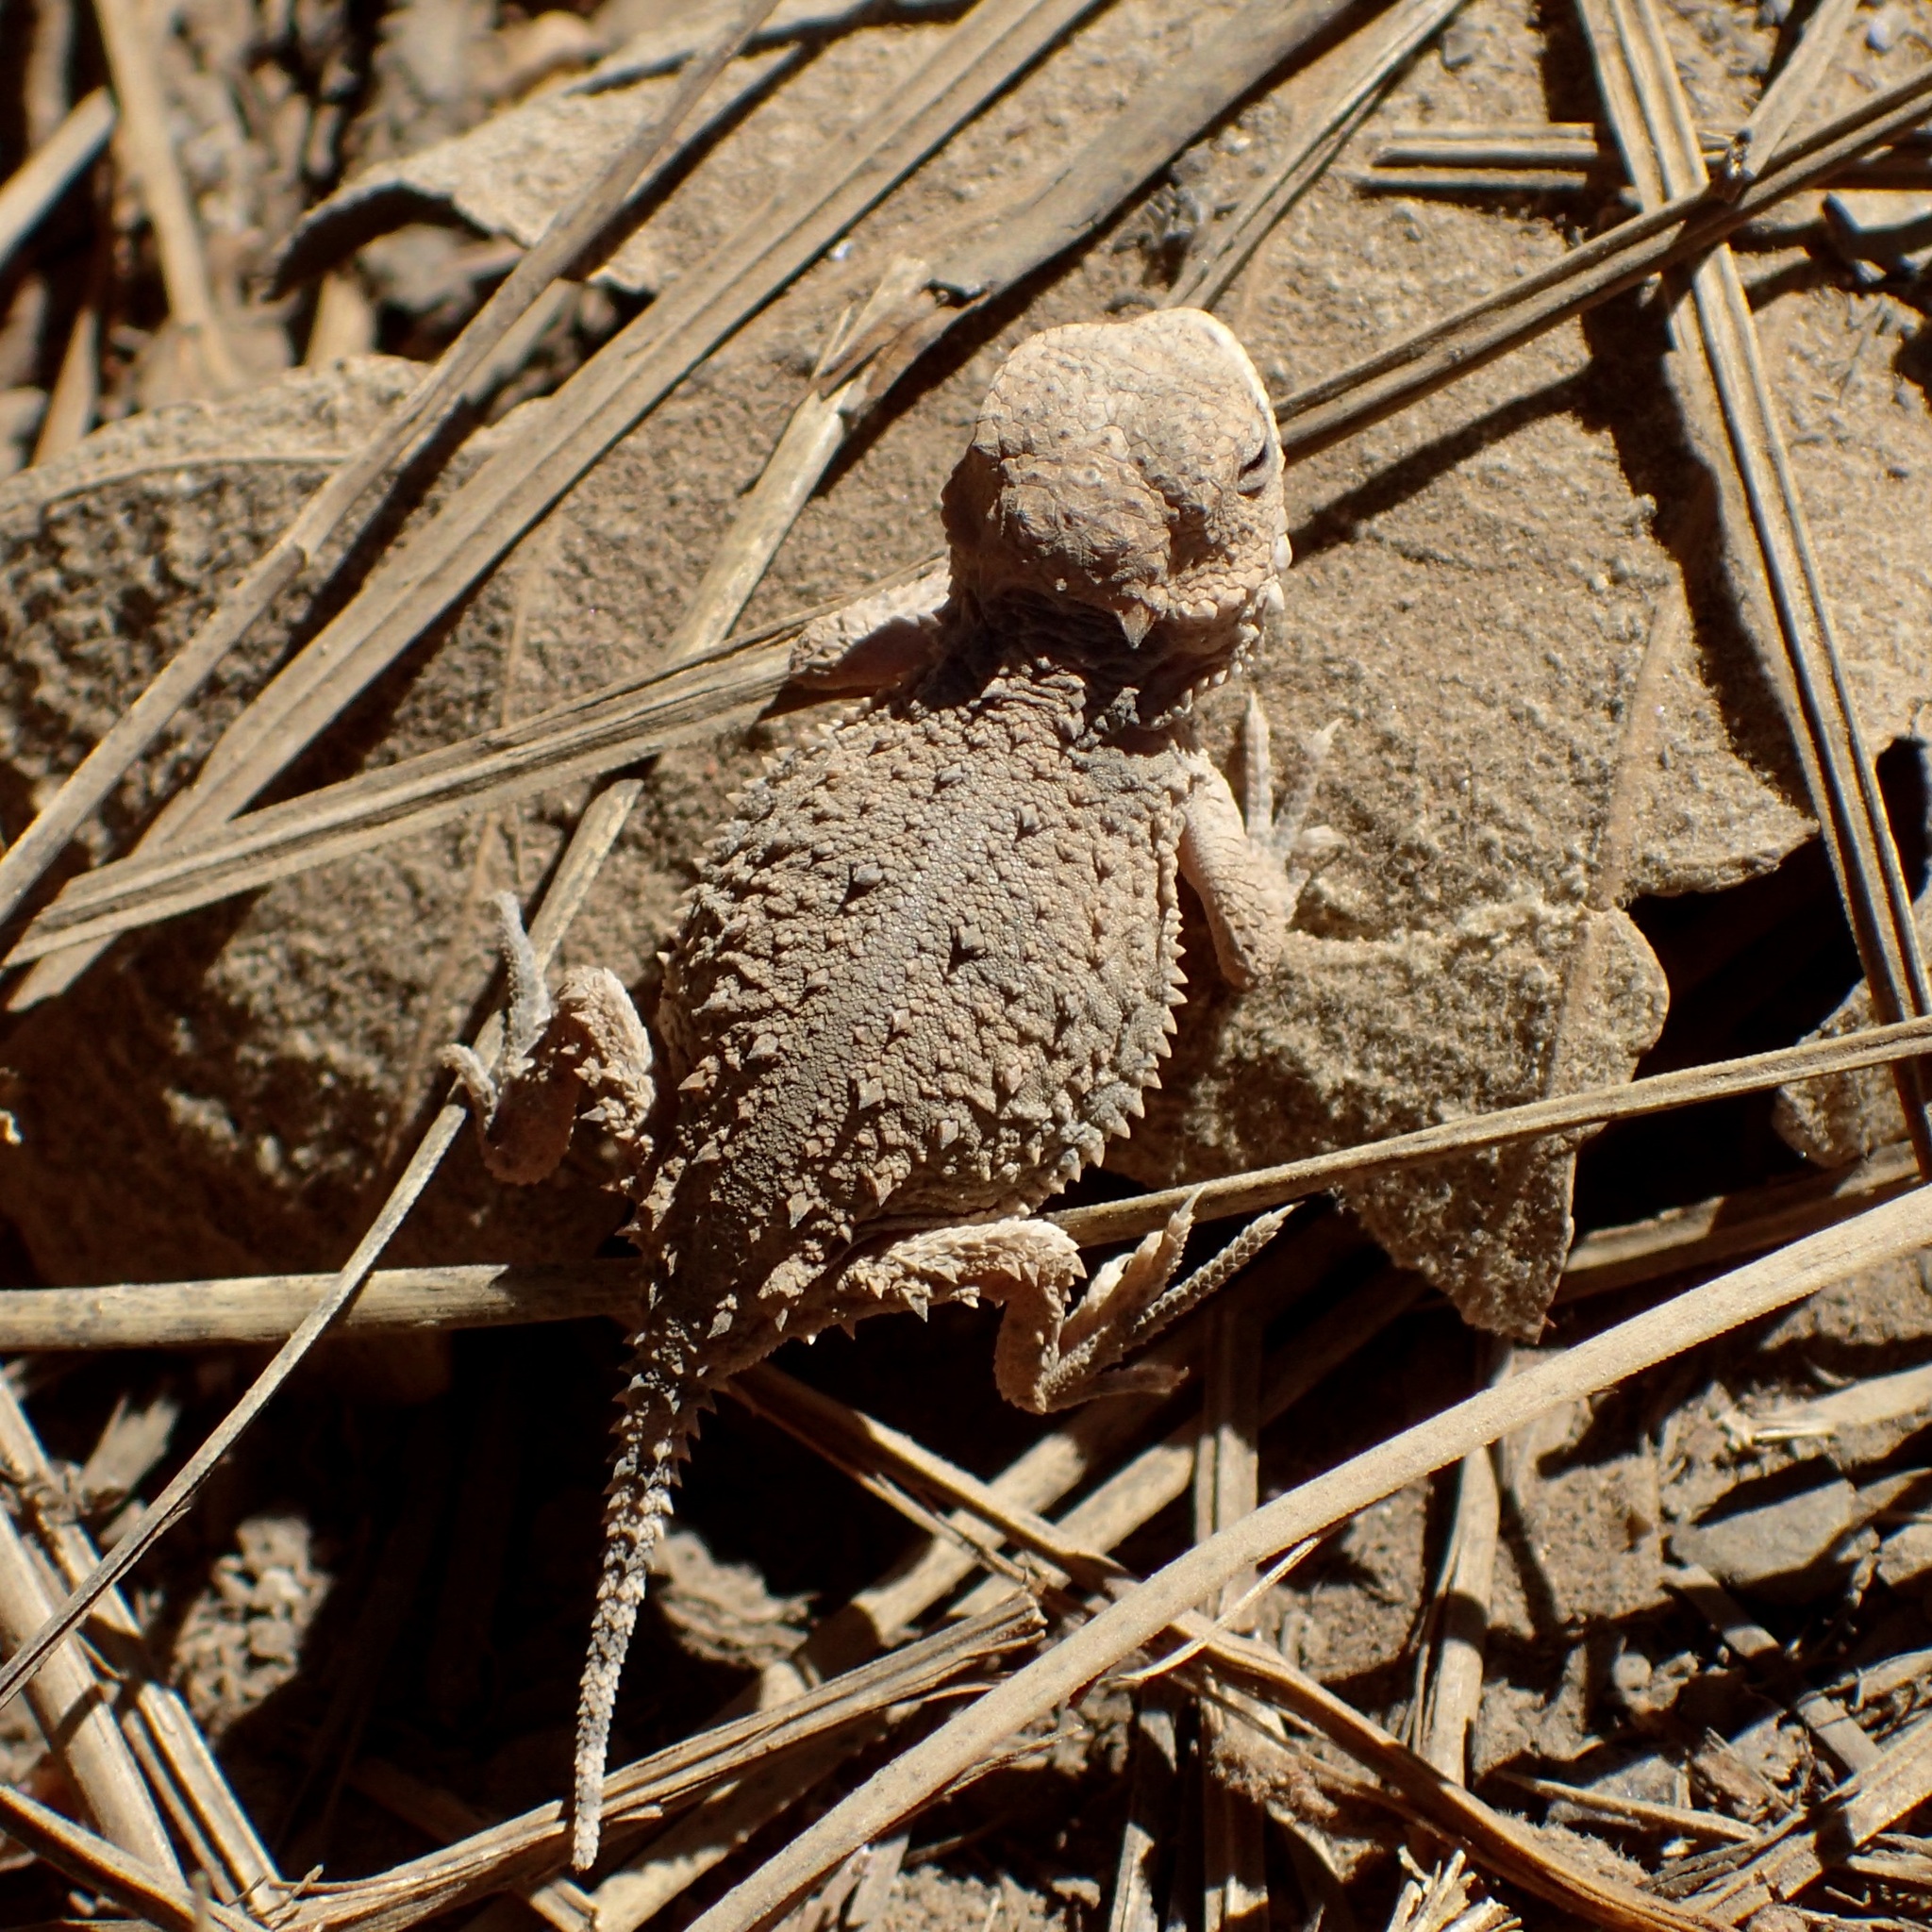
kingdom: Animalia
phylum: Chordata
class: Squamata
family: Phrynosomatidae
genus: Phrynosoma
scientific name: Phrynosoma orbiculare
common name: Mountain horned lizard
